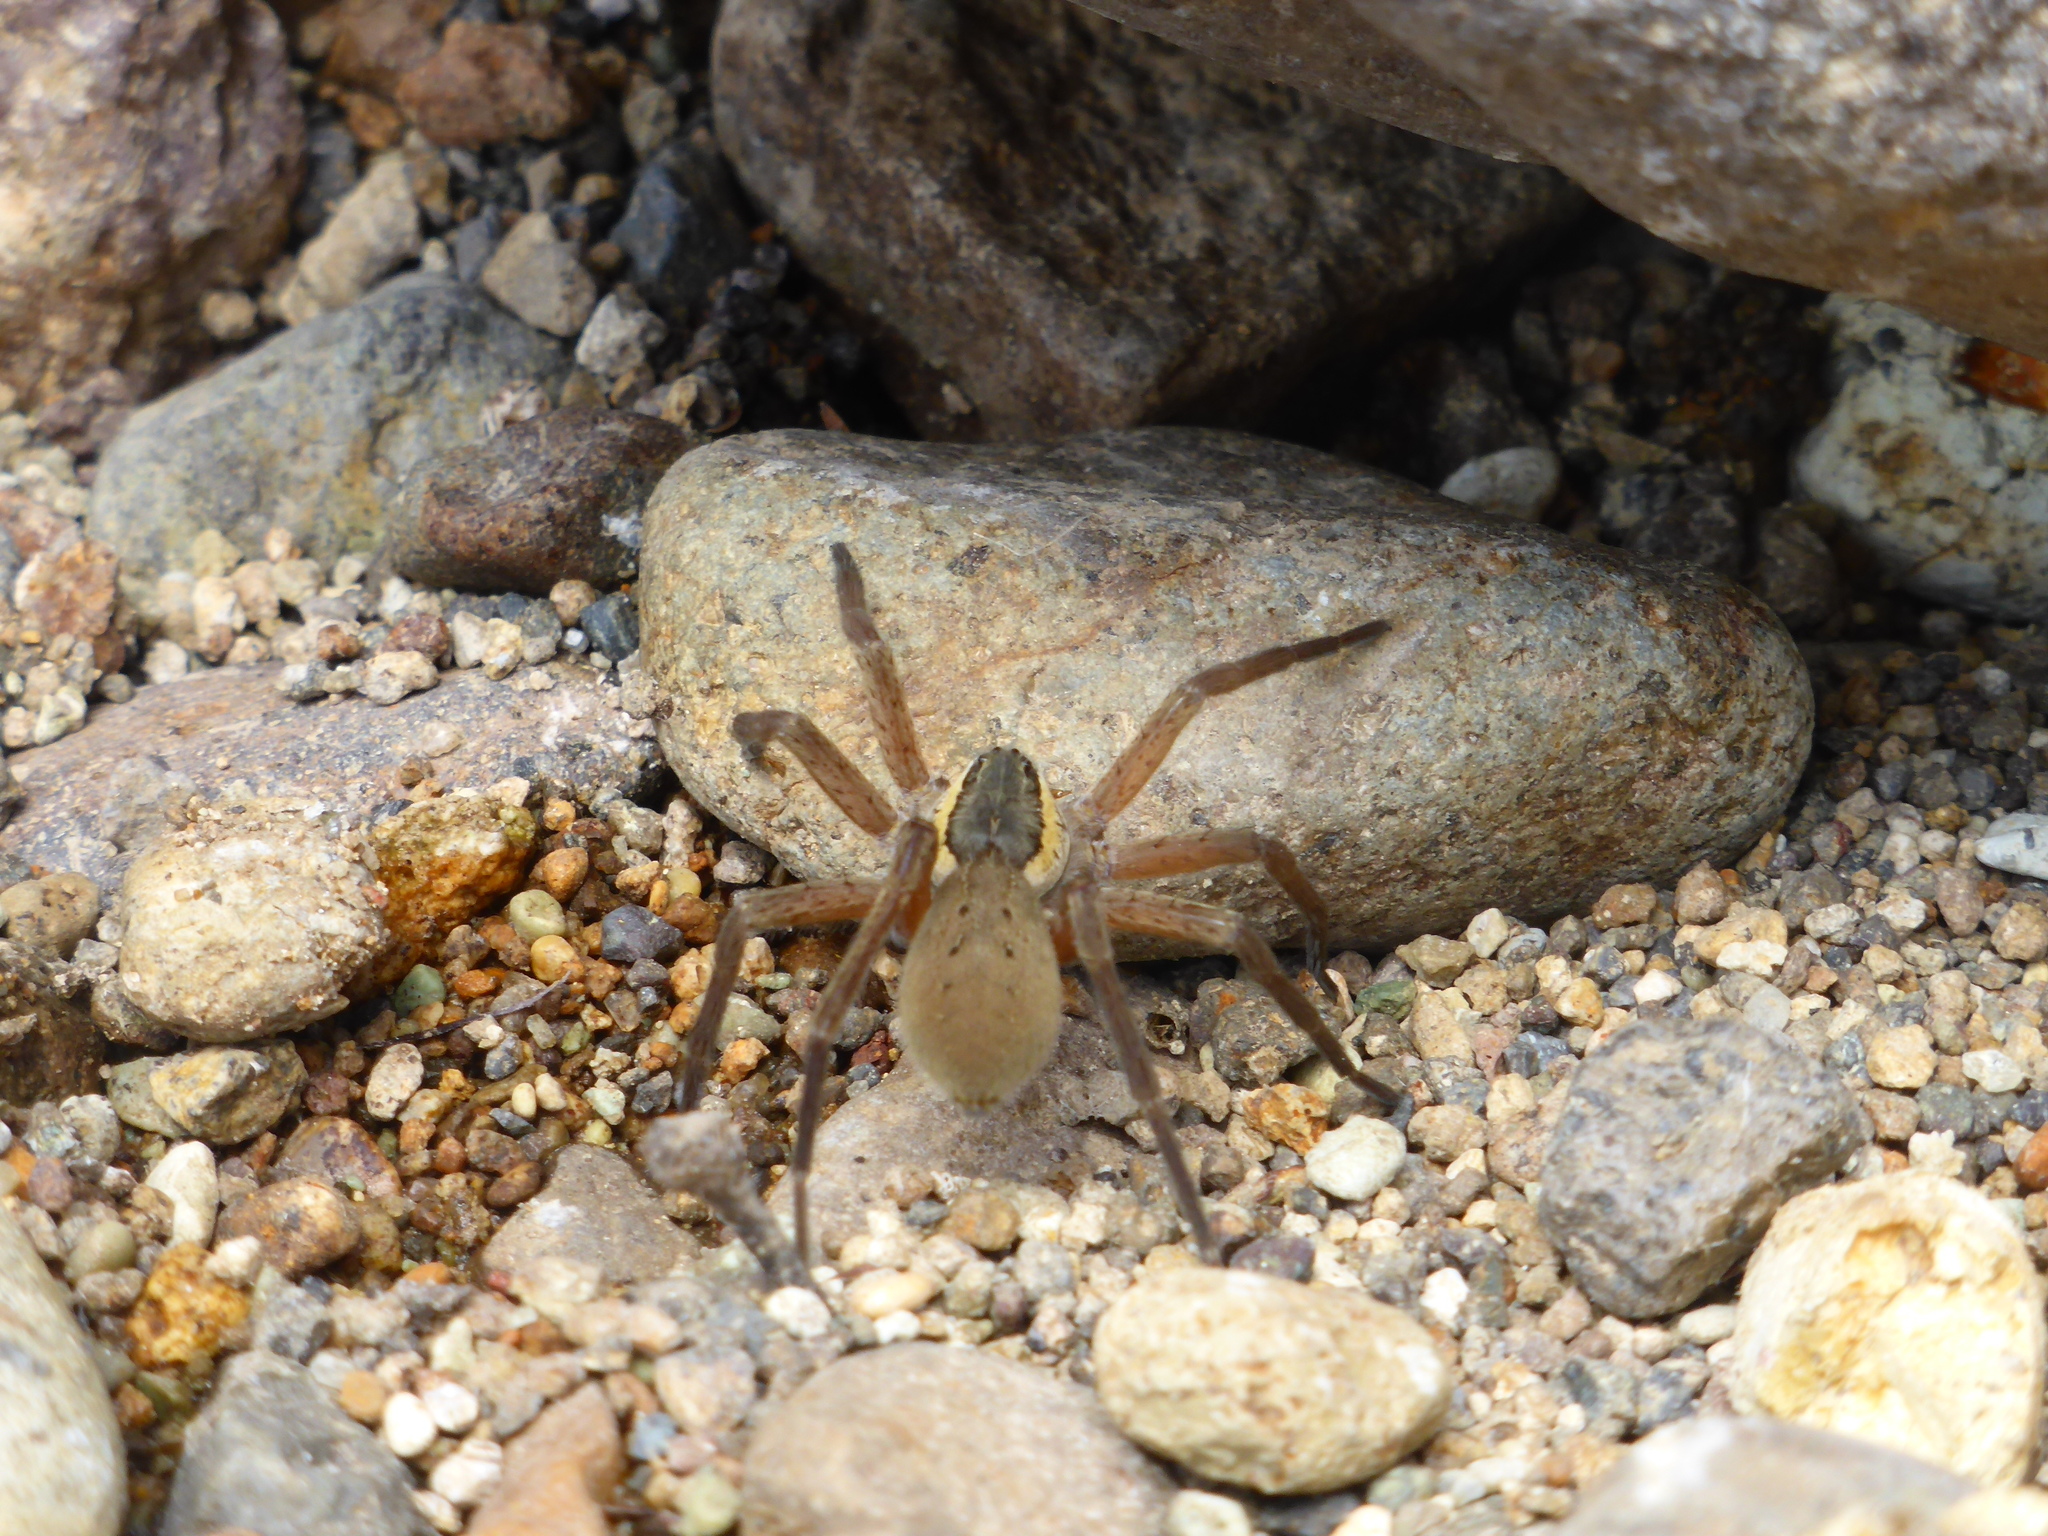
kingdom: Animalia
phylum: Arthropoda
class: Arachnida
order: Araneae
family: Pisauridae
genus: Dolomedes
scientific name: Dolomedes aquaticus
